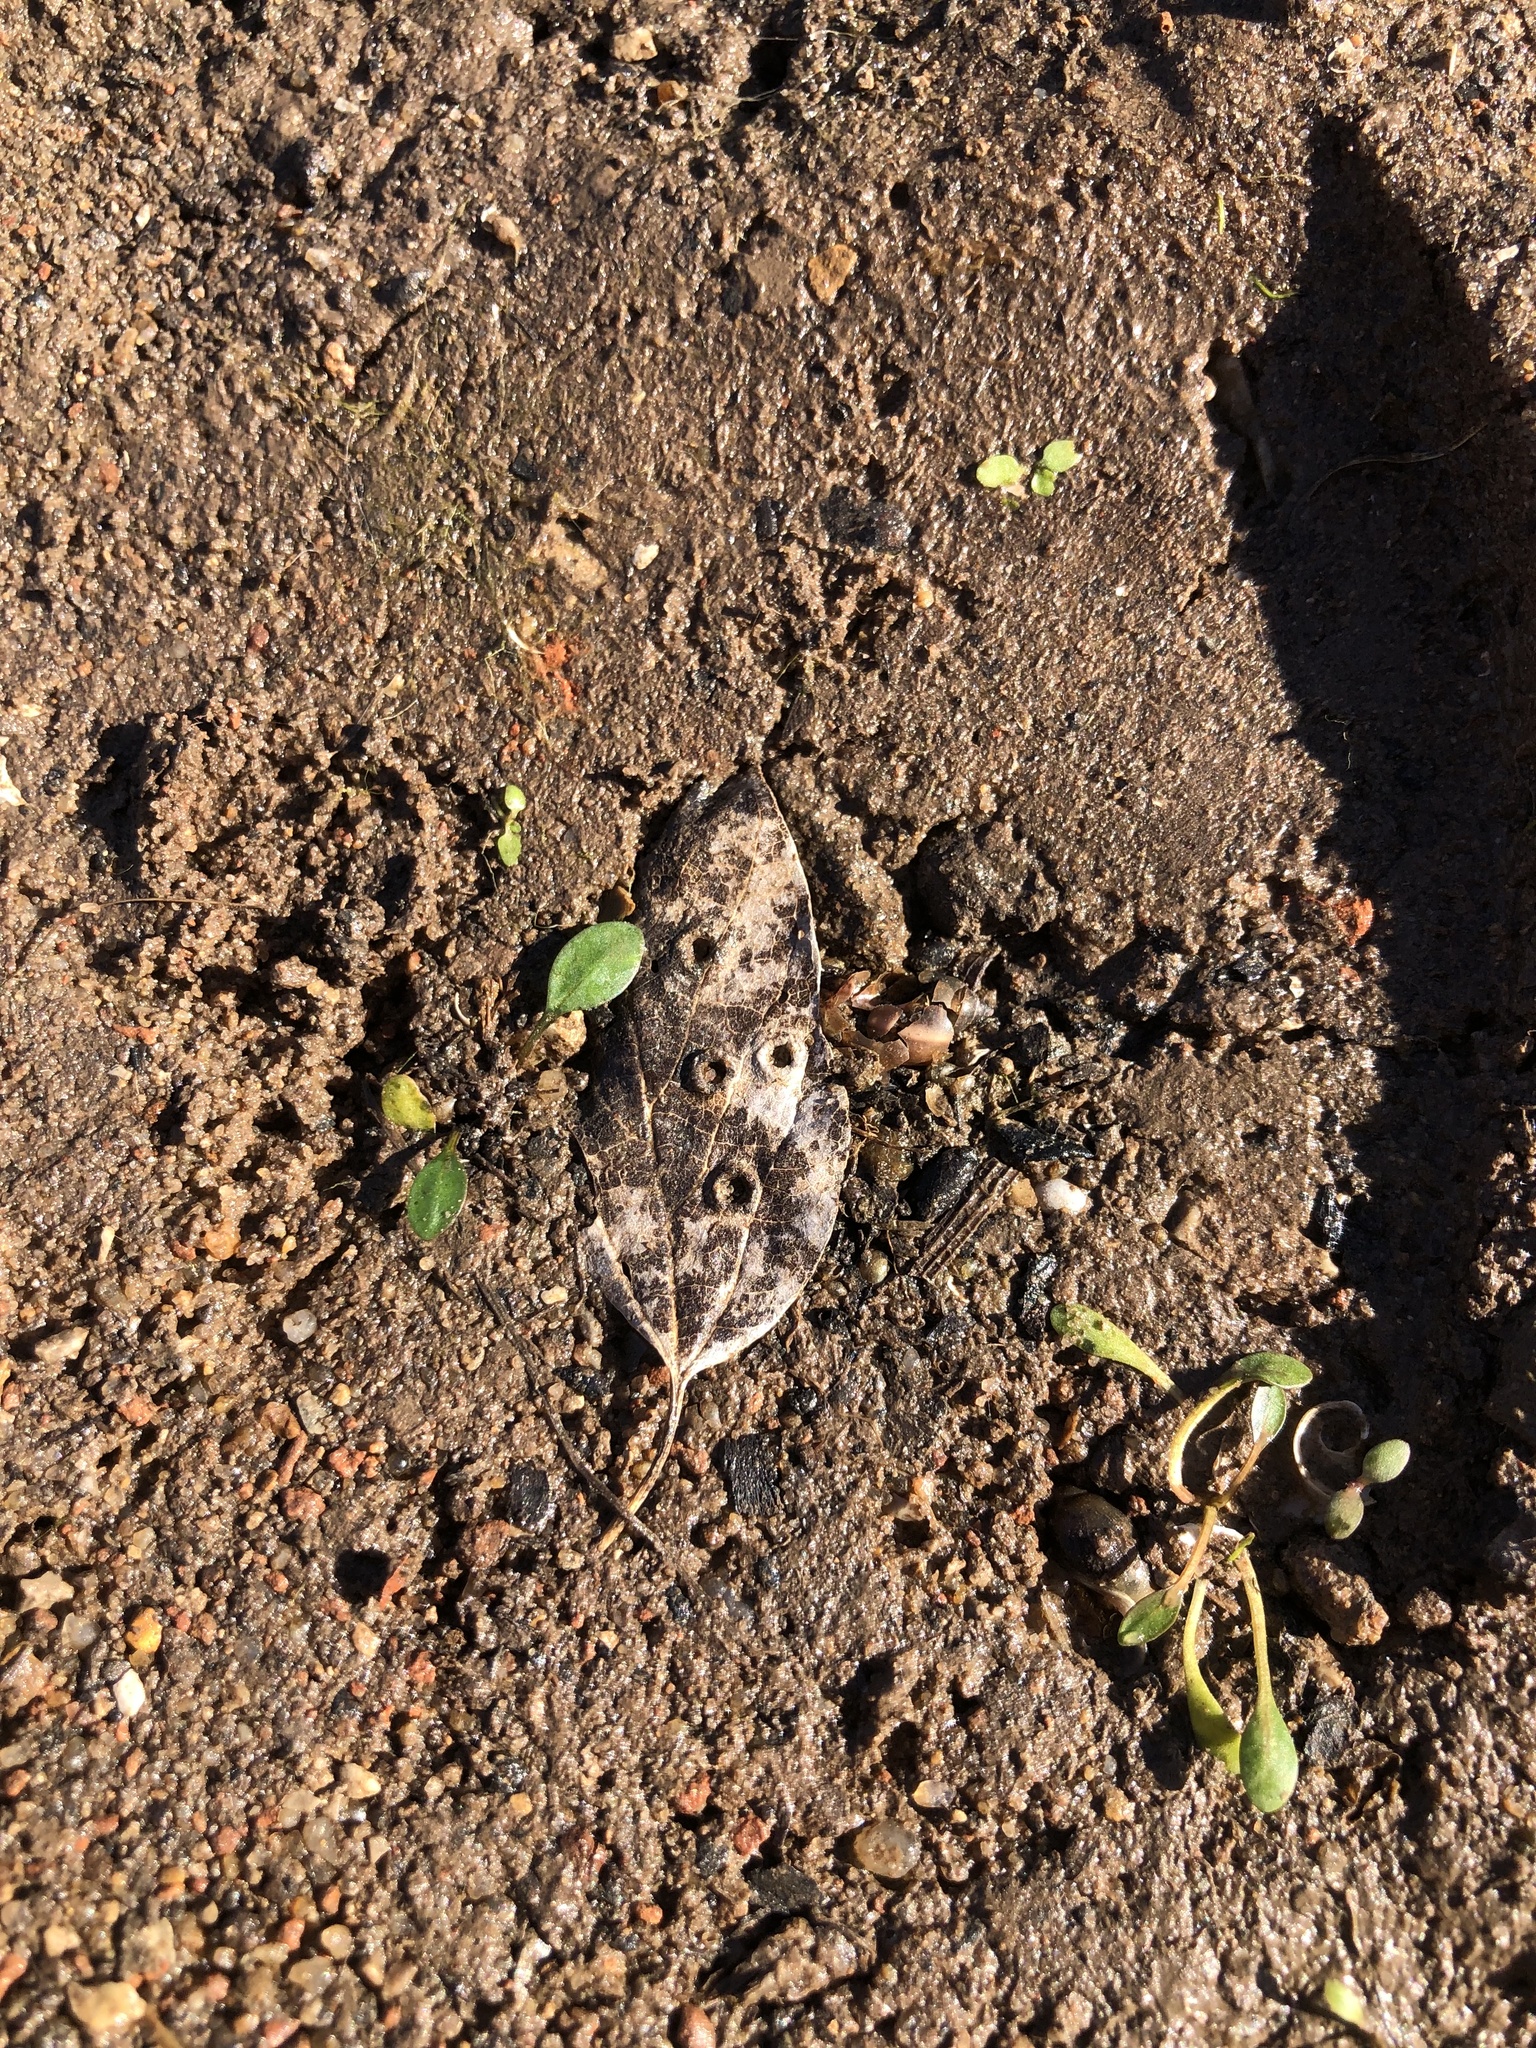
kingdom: Animalia
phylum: Arthropoda
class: Insecta
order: Hemiptera
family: Aphalaridae
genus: Pachypsylla
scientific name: Pachypsylla celtidismamma
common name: Hackberry nipplegall psyllid
